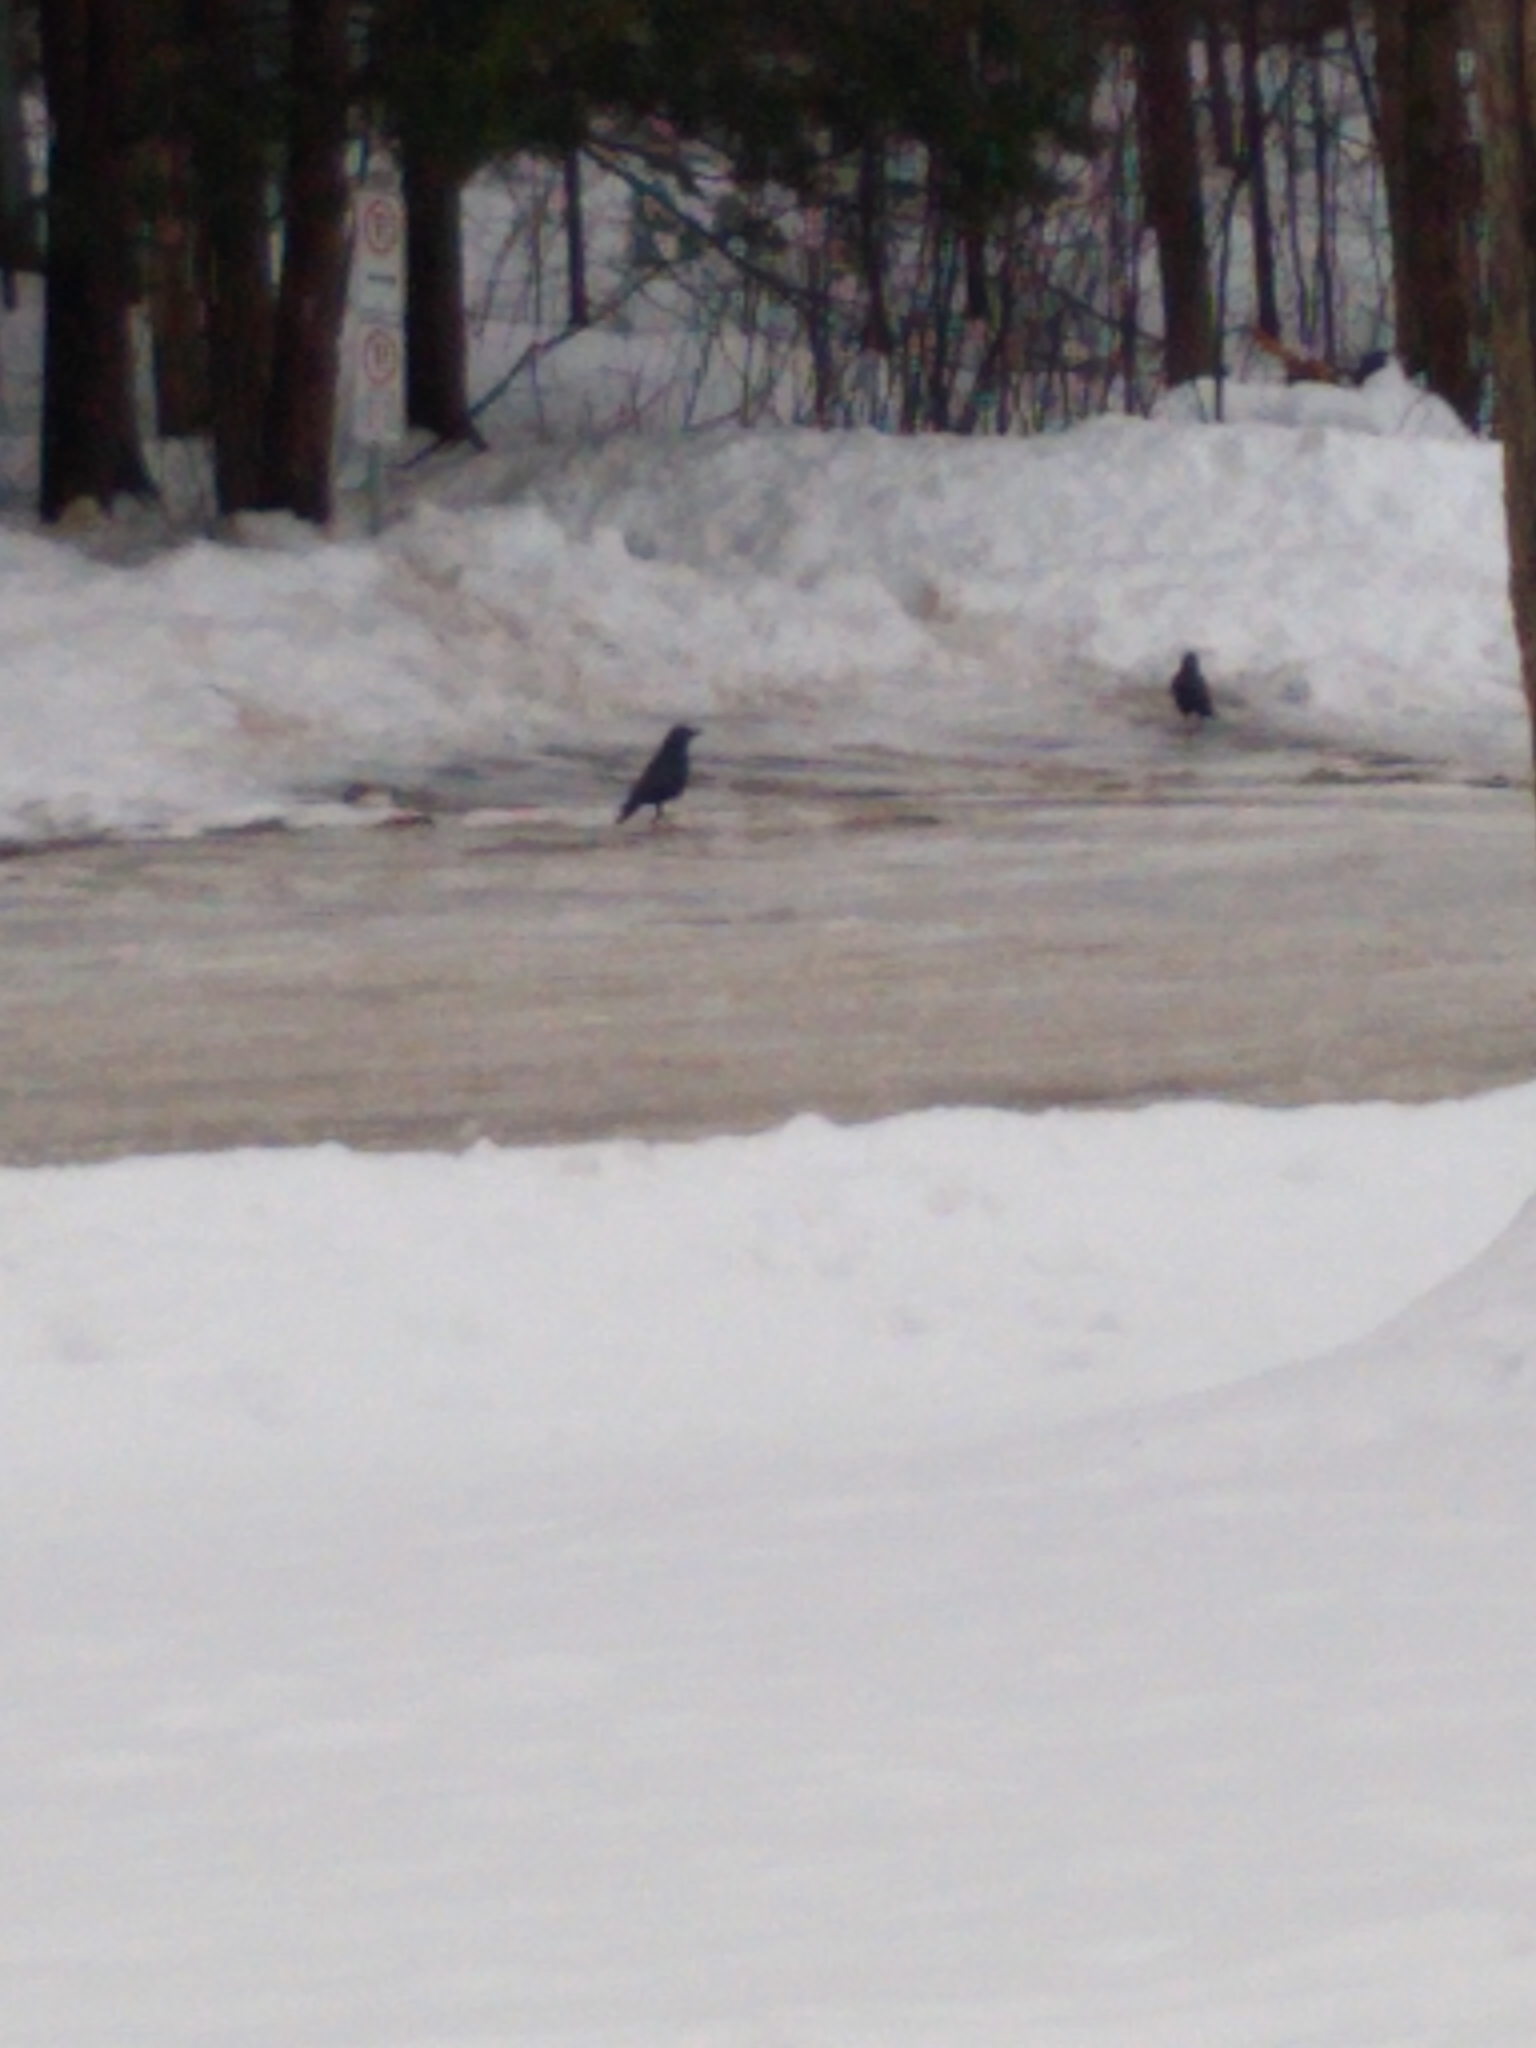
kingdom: Animalia
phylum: Chordata
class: Aves
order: Passeriformes
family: Corvidae
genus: Corvus
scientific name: Corvus brachyrhynchos
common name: American crow
